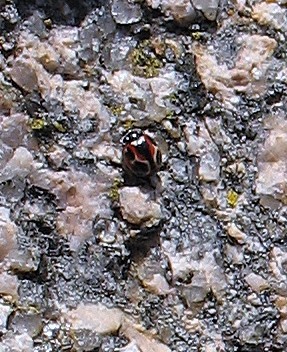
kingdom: Animalia
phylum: Arthropoda
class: Insecta
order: Coleoptera
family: Coccinellidae
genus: Cycloneda
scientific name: Cycloneda ancoralis
